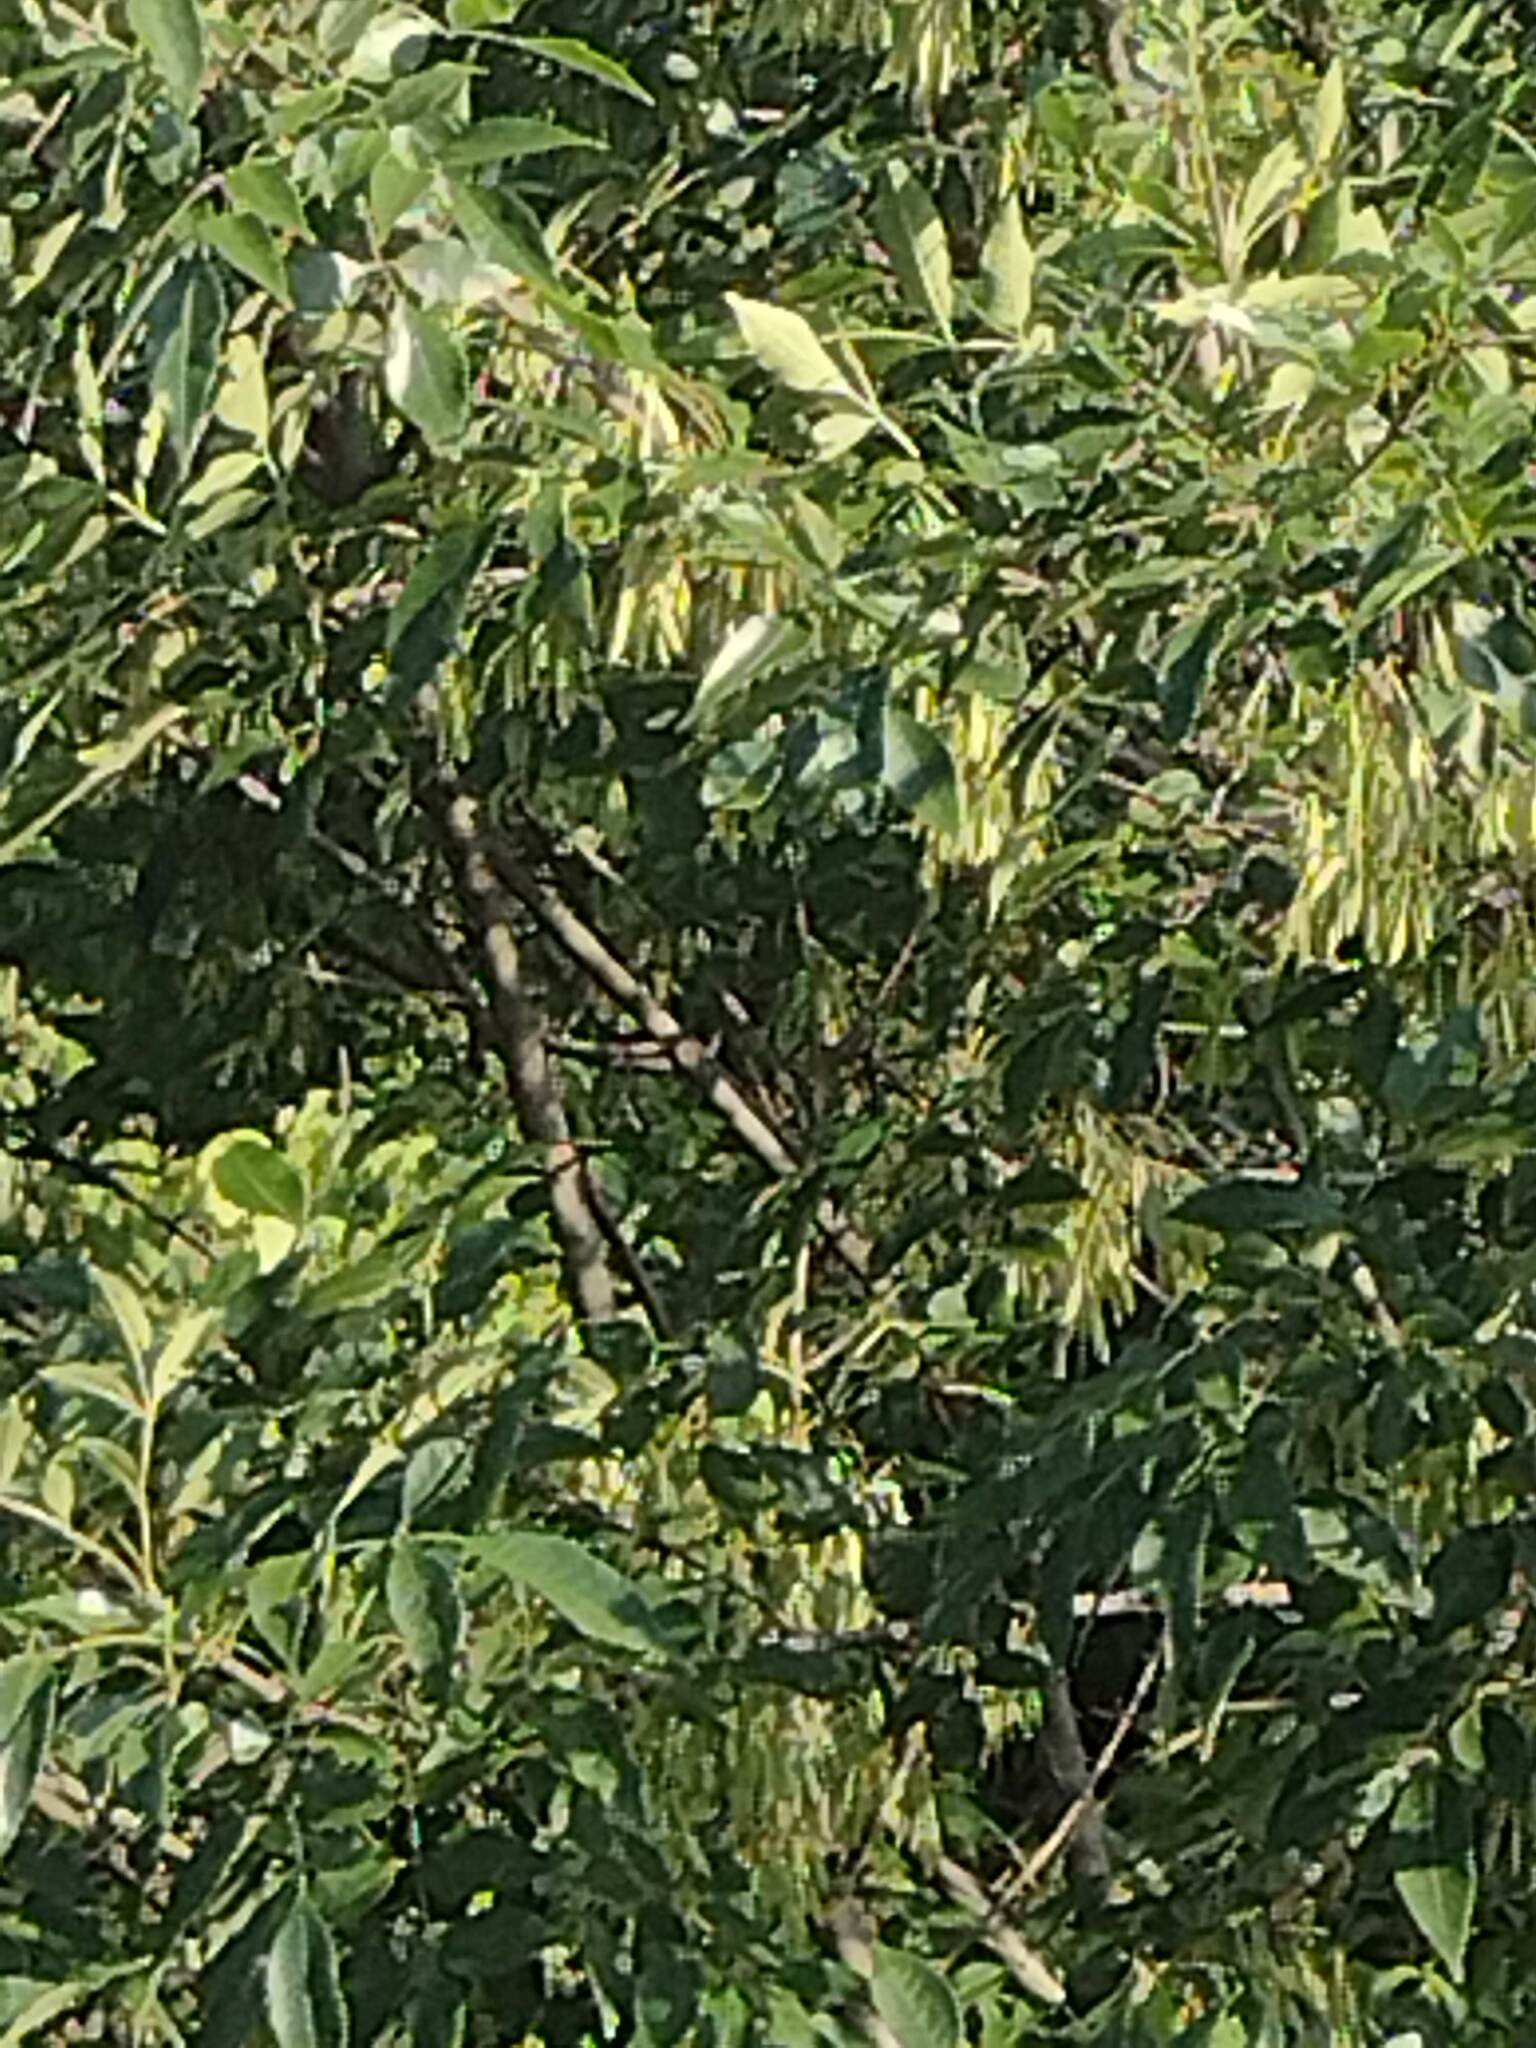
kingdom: Plantae
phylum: Tracheophyta
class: Magnoliopsida
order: Lamiales
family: Oleaceae
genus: Fraxinus
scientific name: Fraxinus americana
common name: White ash
